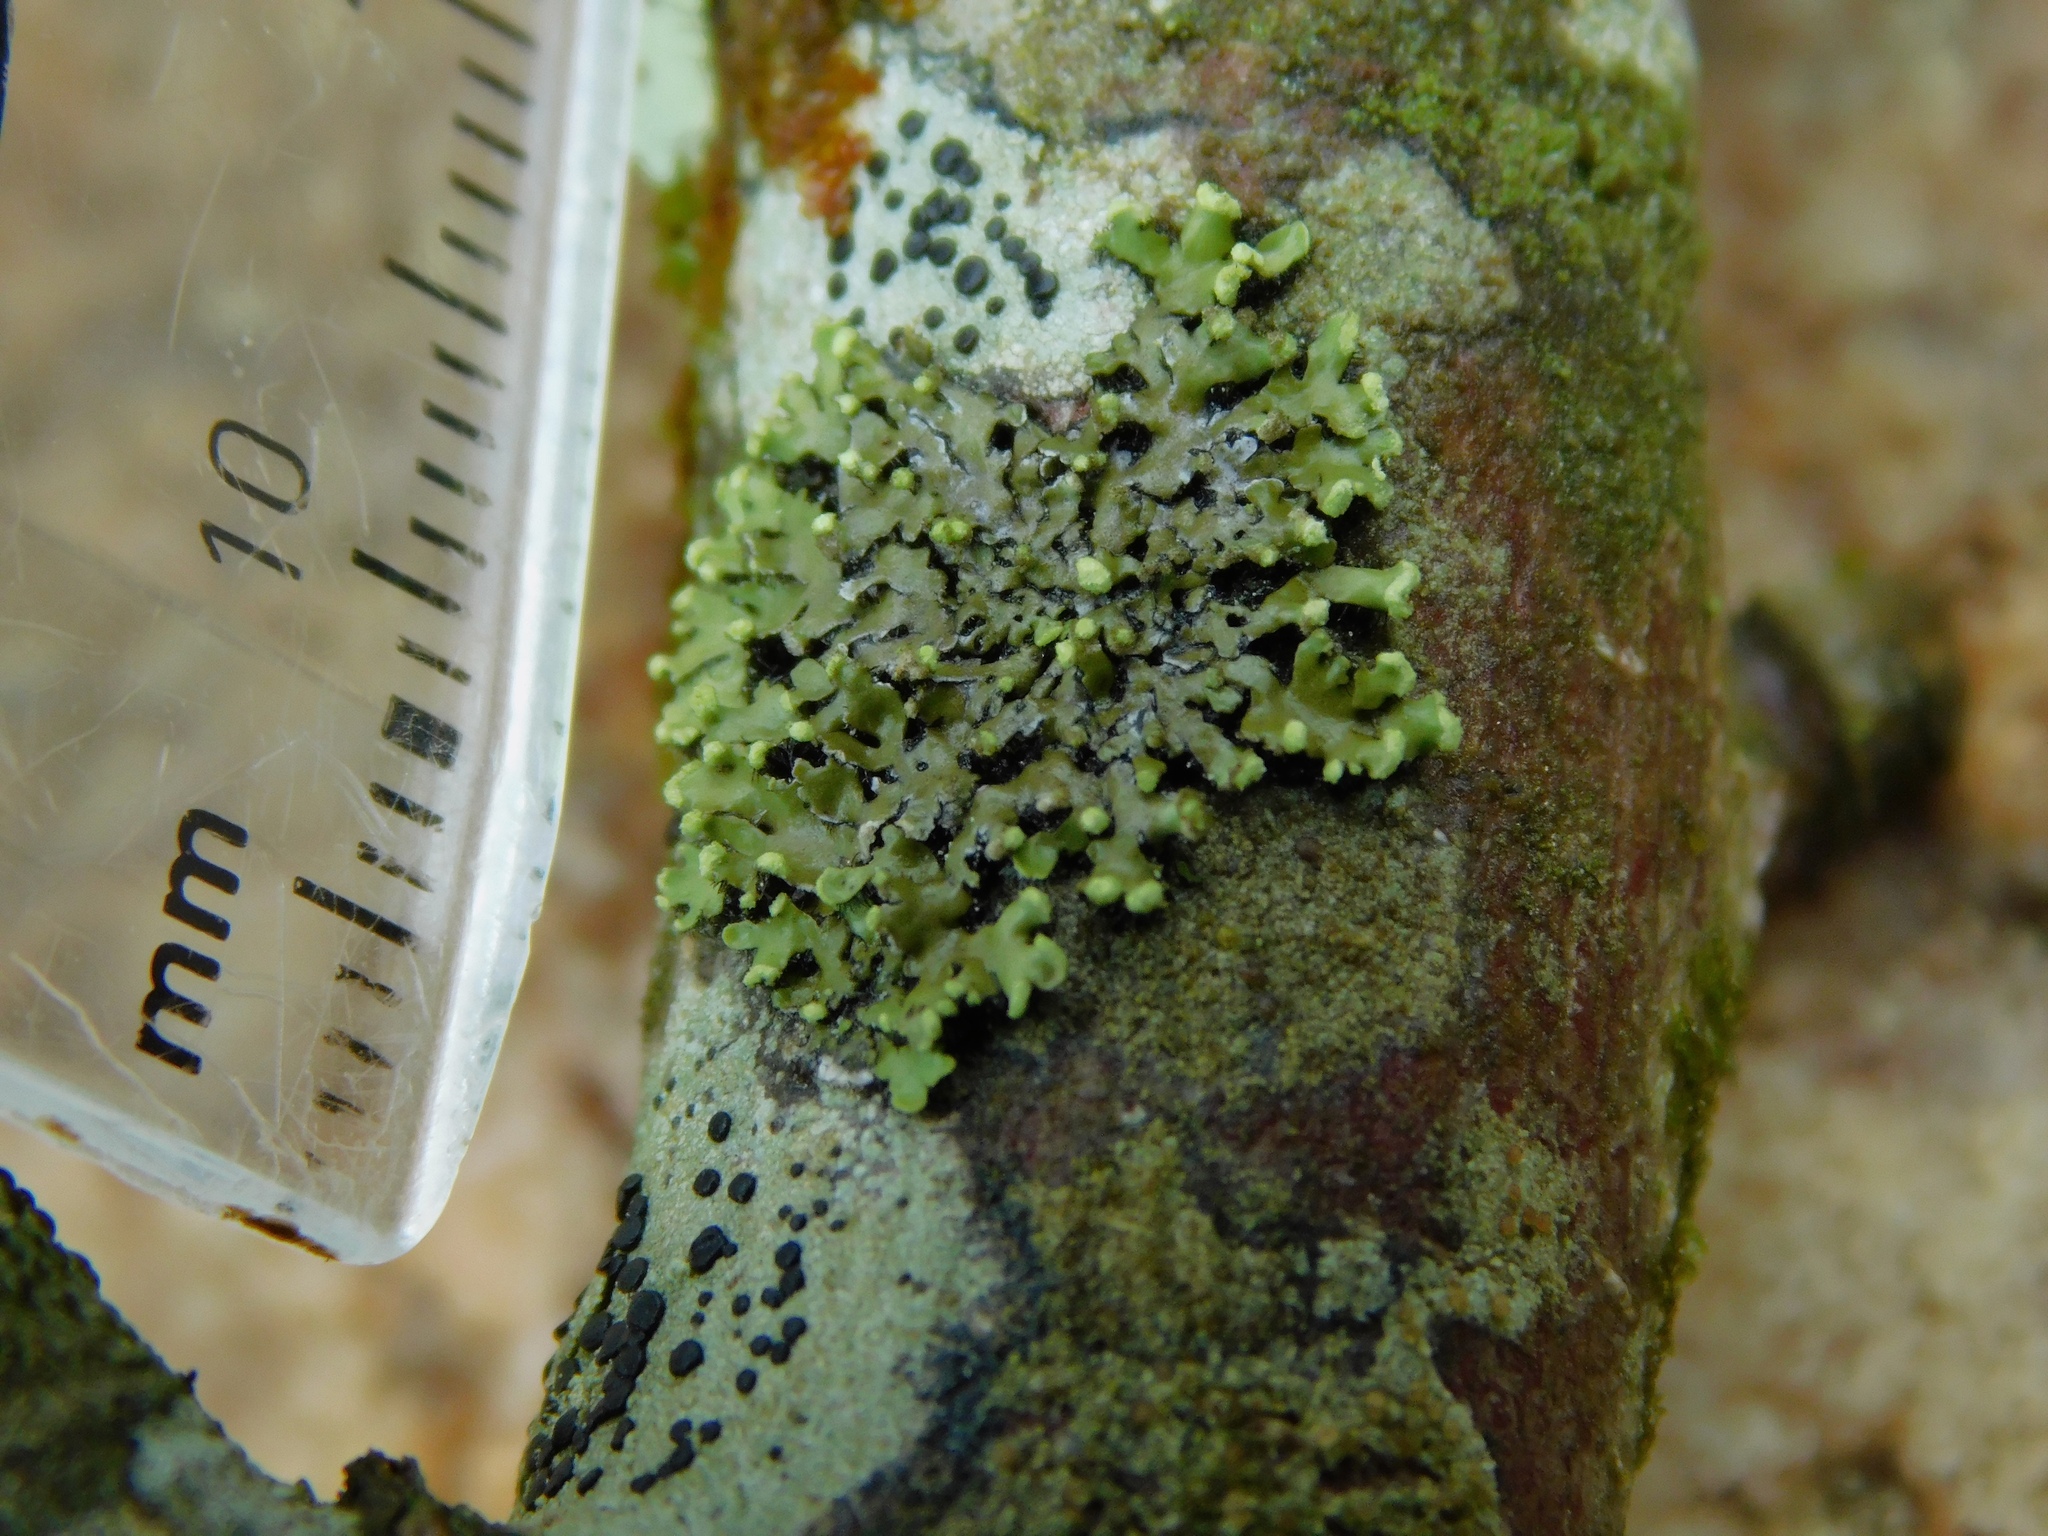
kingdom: Fungi
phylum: Ascomycota
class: Lecanoromycetes
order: Caliciales
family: Physciaceae
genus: Polyblastidium
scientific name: Polyblastidium japonicum
